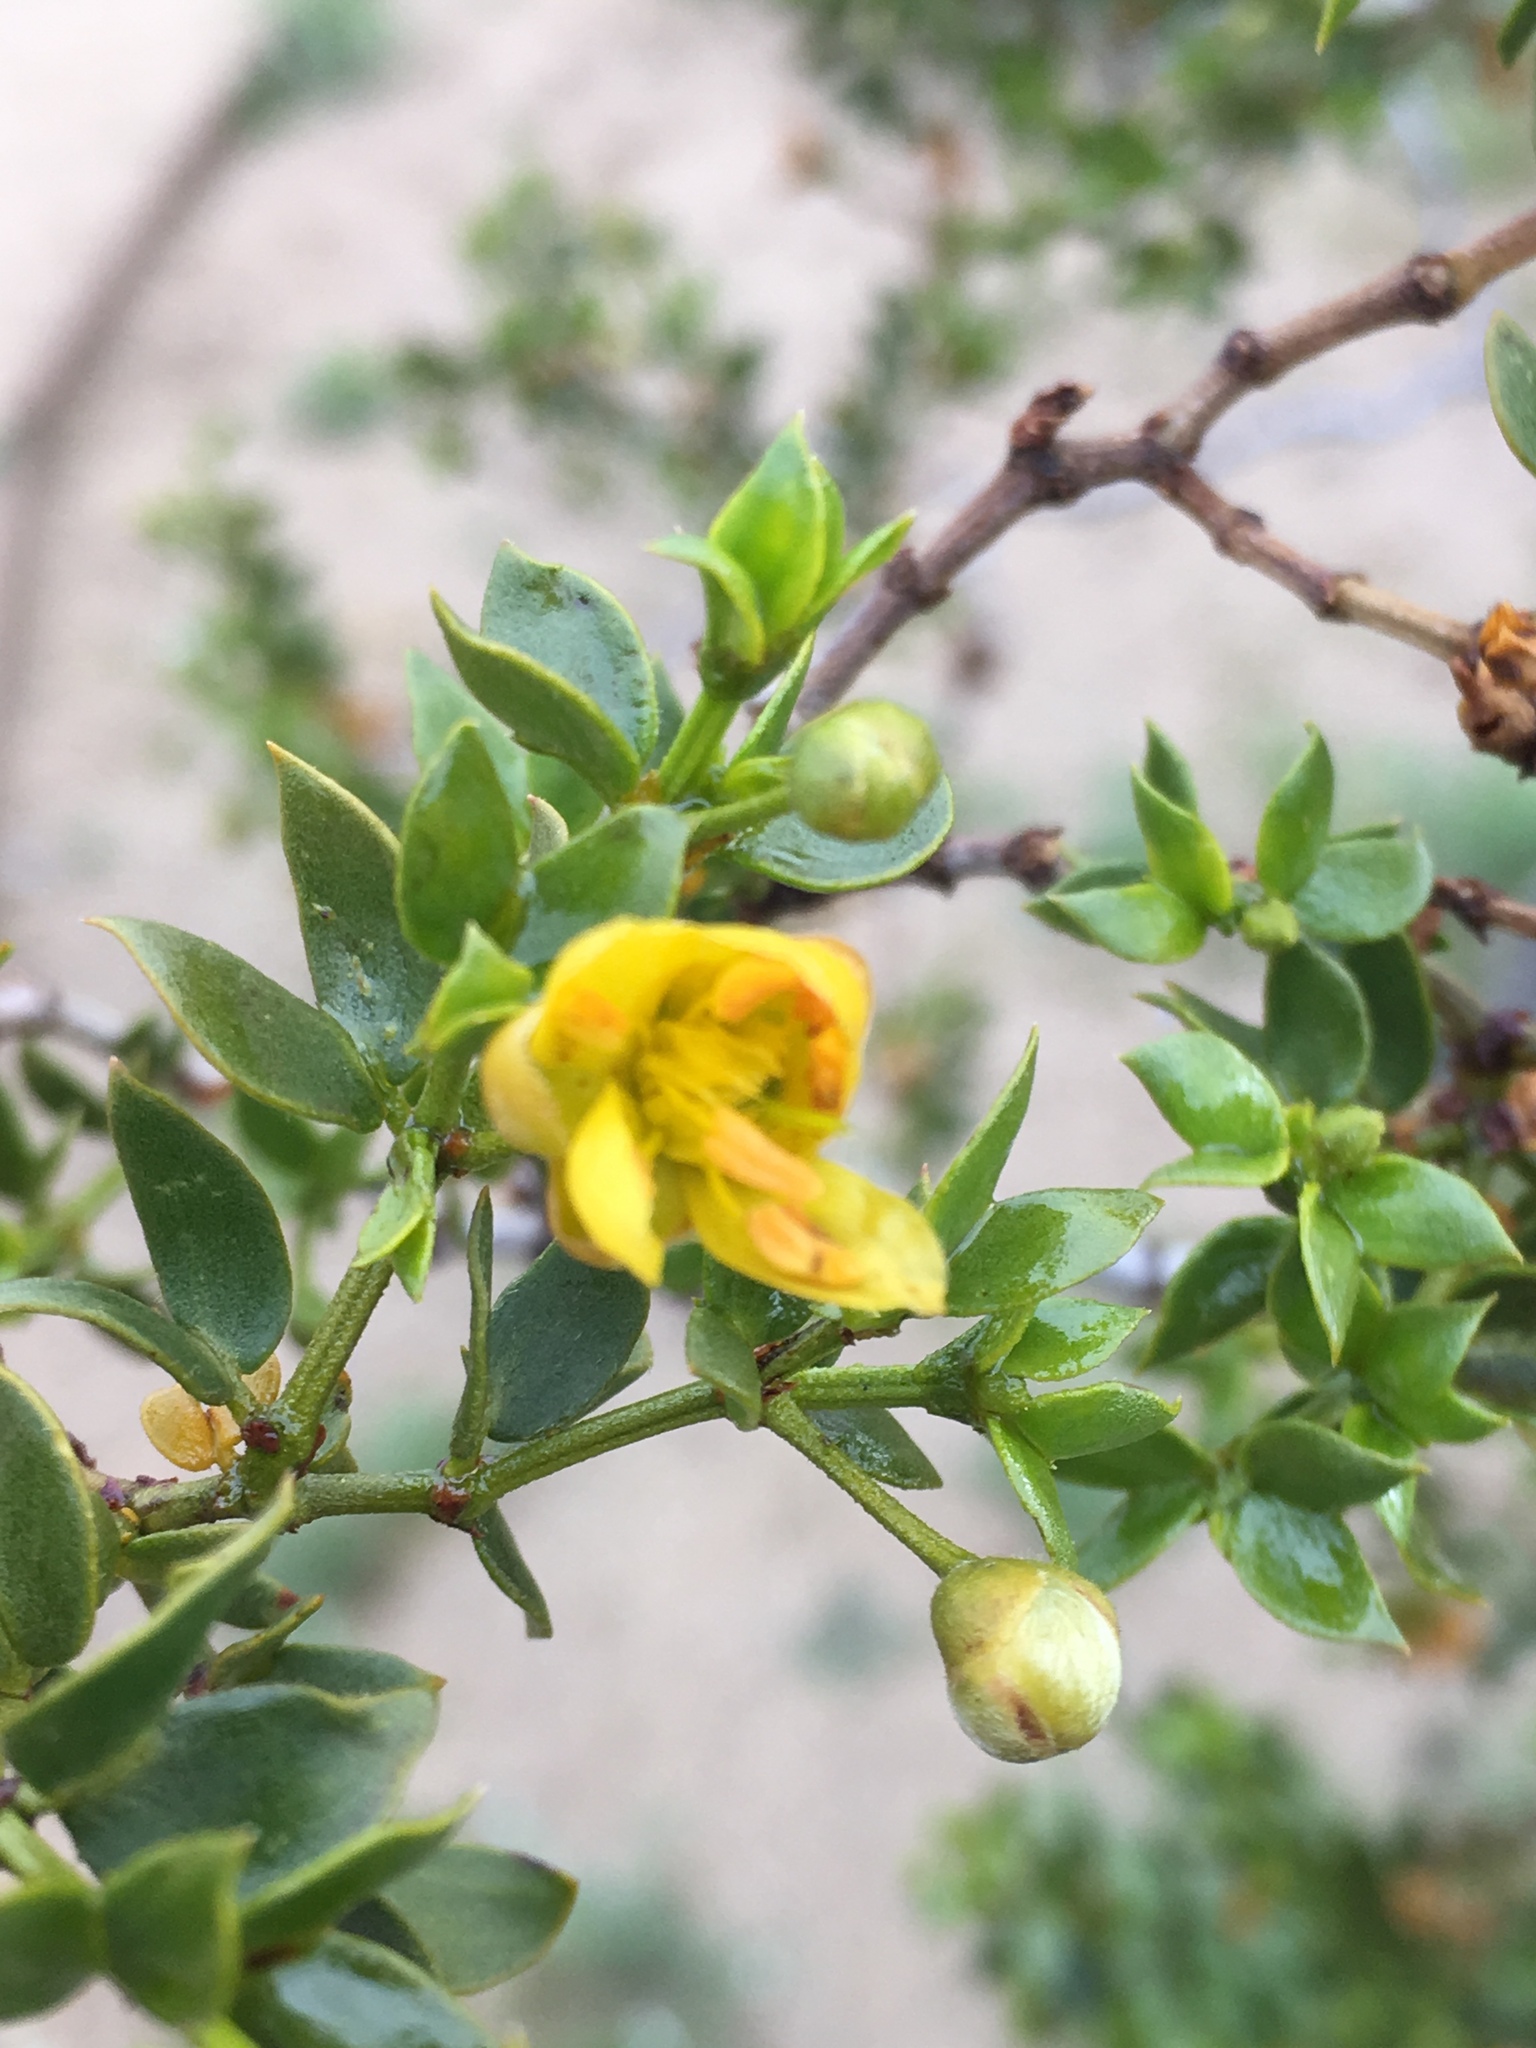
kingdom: Plantae
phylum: Tracheophyta
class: Magnoliopsida
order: Zygophyllales
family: Zygophyllaceae
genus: Larrea
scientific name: Larrea tridentata
